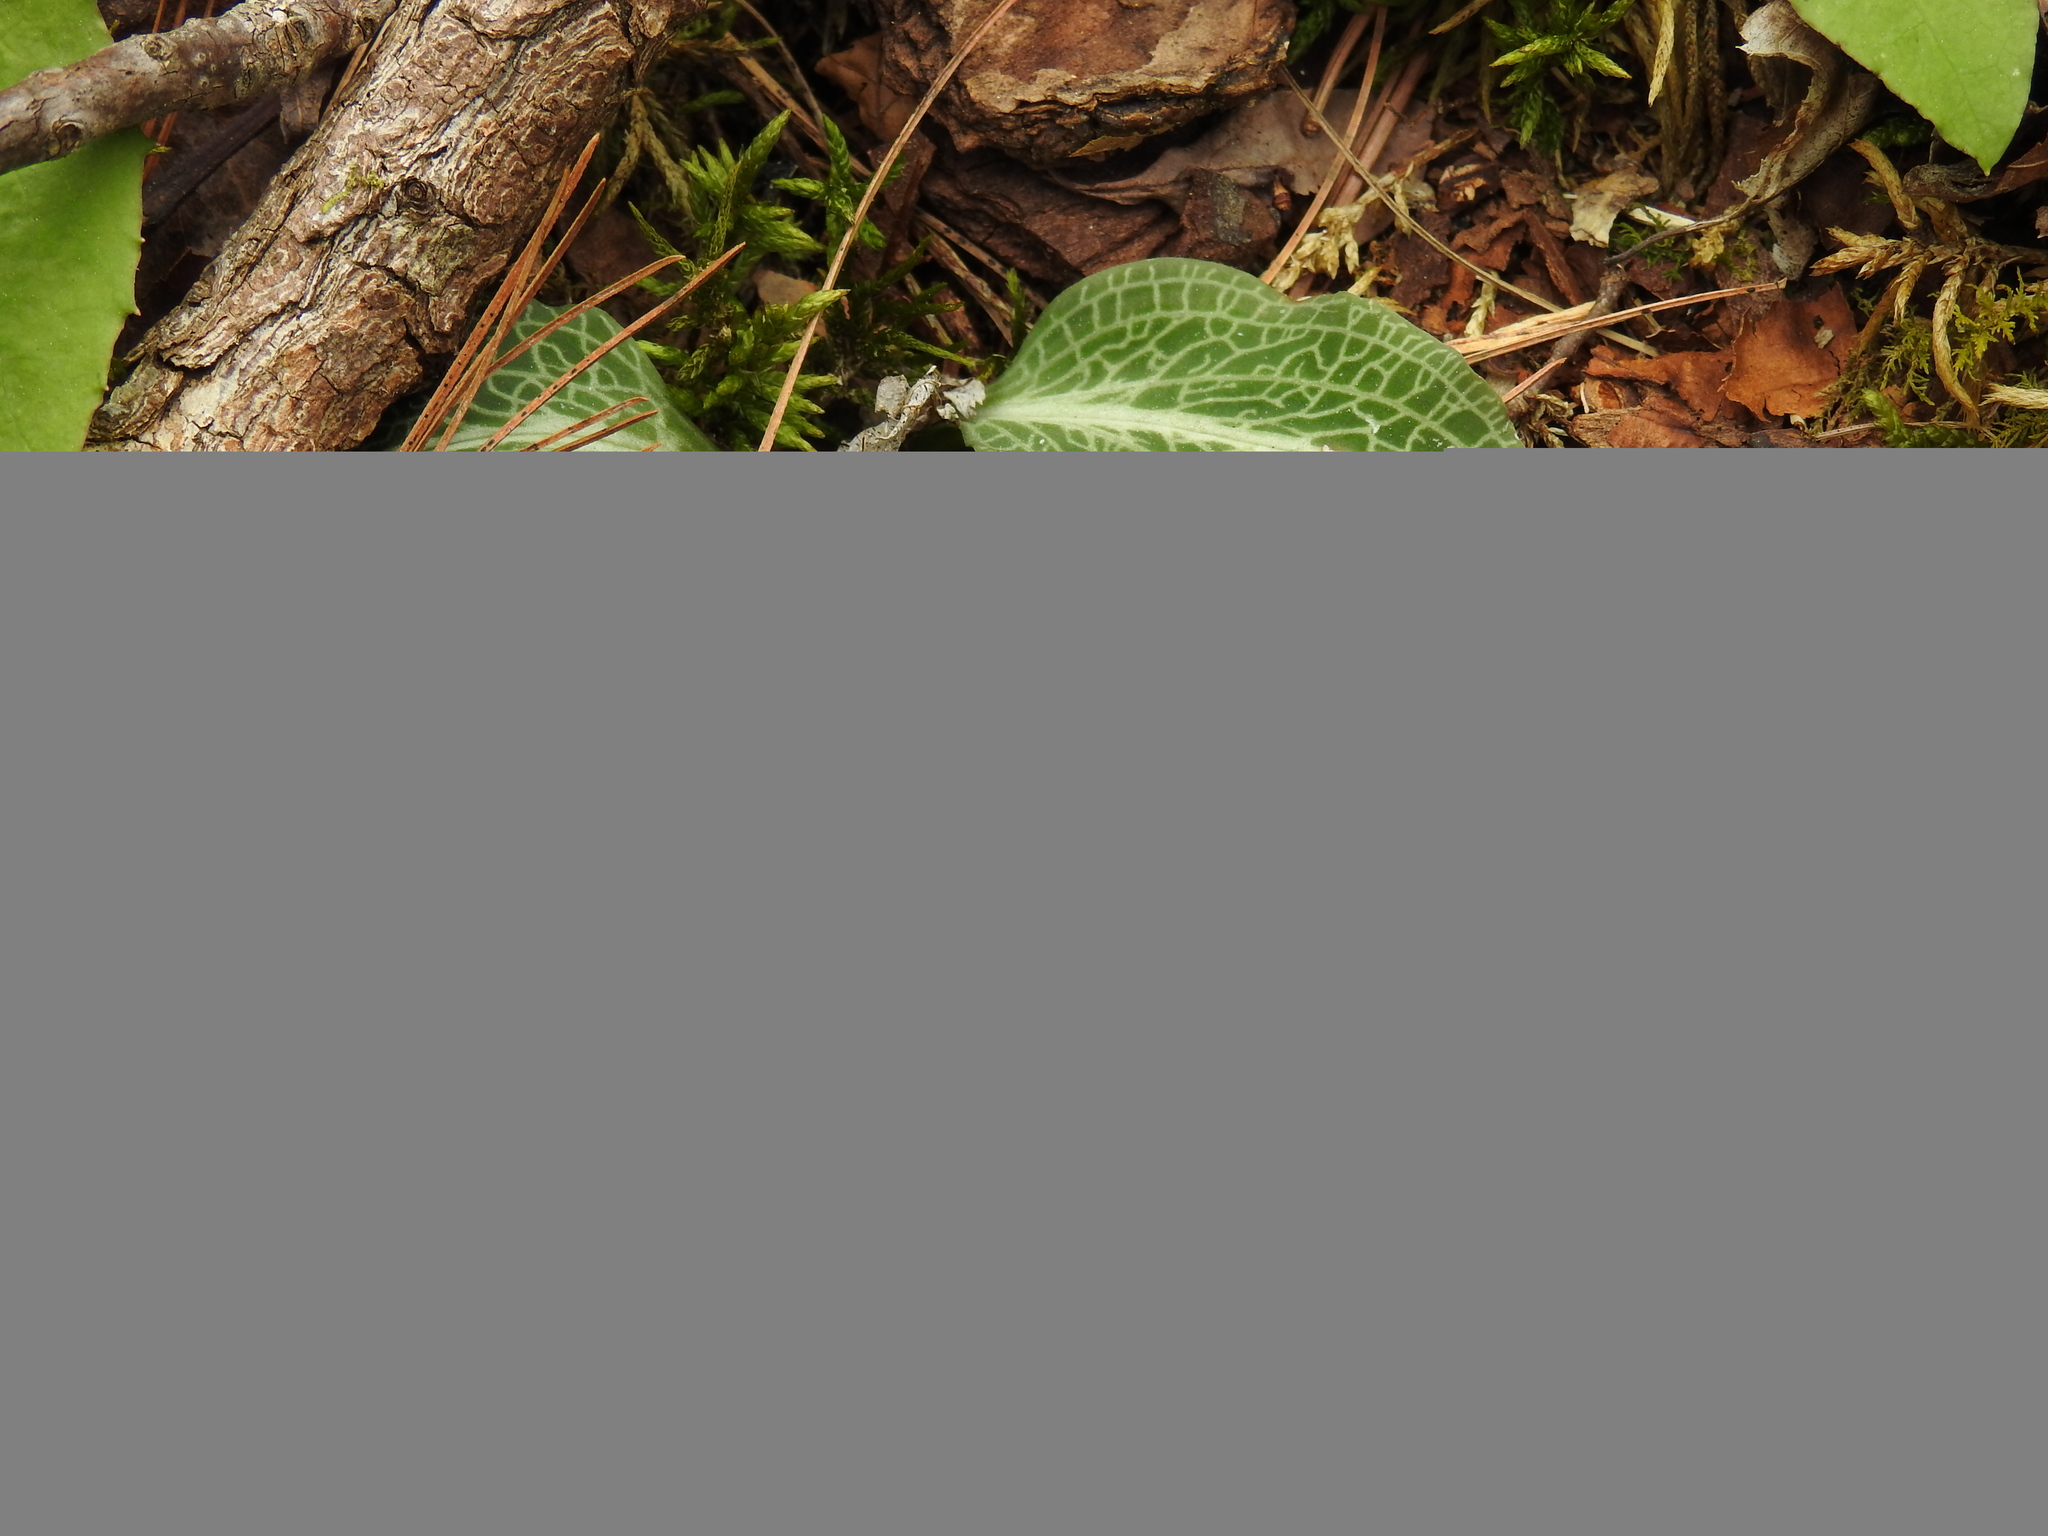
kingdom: Plantae
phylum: Tracheophyta
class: Liliopsida
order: Asparagales
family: Orchidaceae
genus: Goodyera
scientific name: Goodyera pubescens
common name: Downy rattlesnake-plantain
